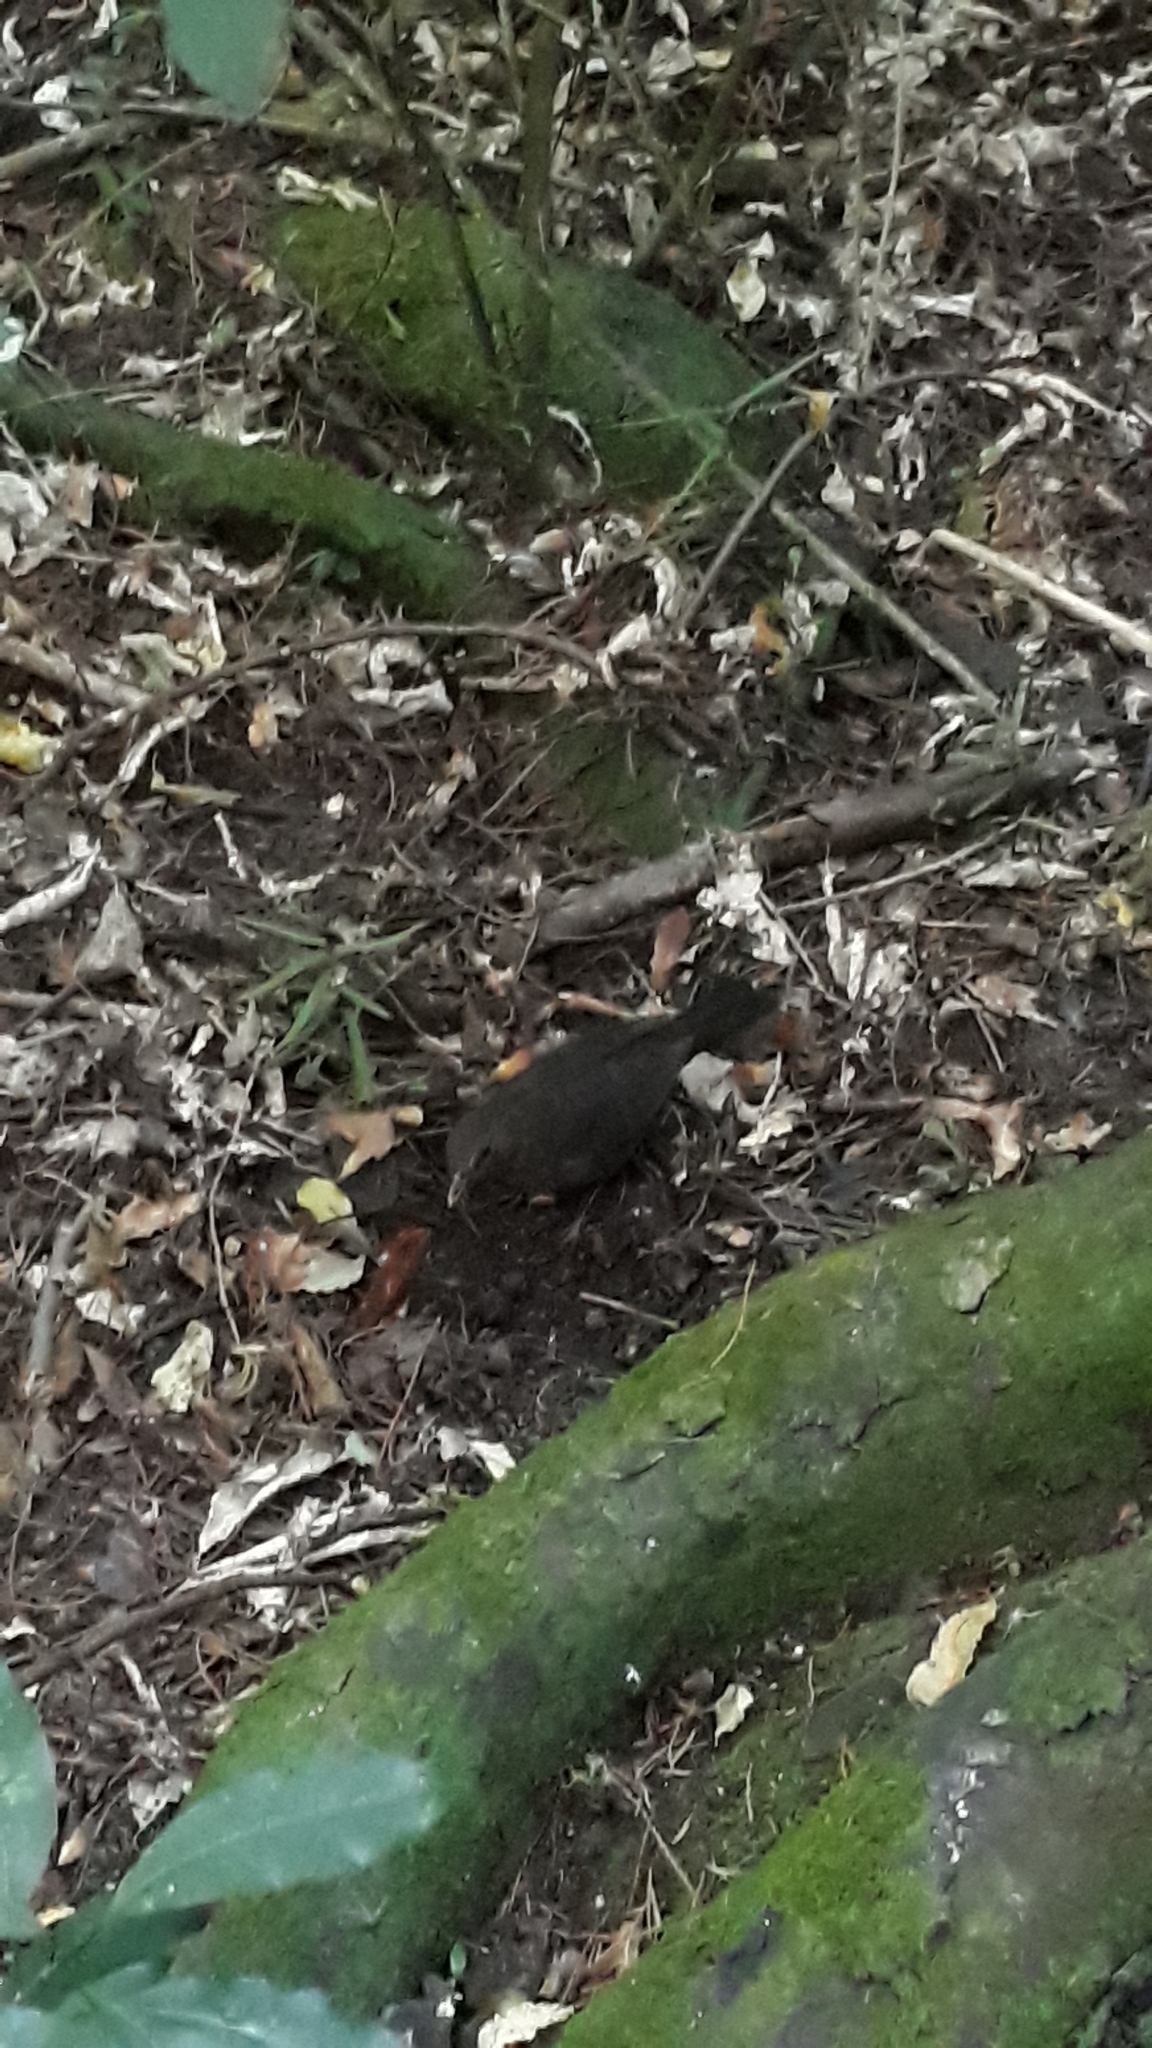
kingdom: Animalia
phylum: Chordata
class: Aves
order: Passeriformes
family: Turdidae
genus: Turdus
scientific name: Turdus merula
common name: Common blackbird
